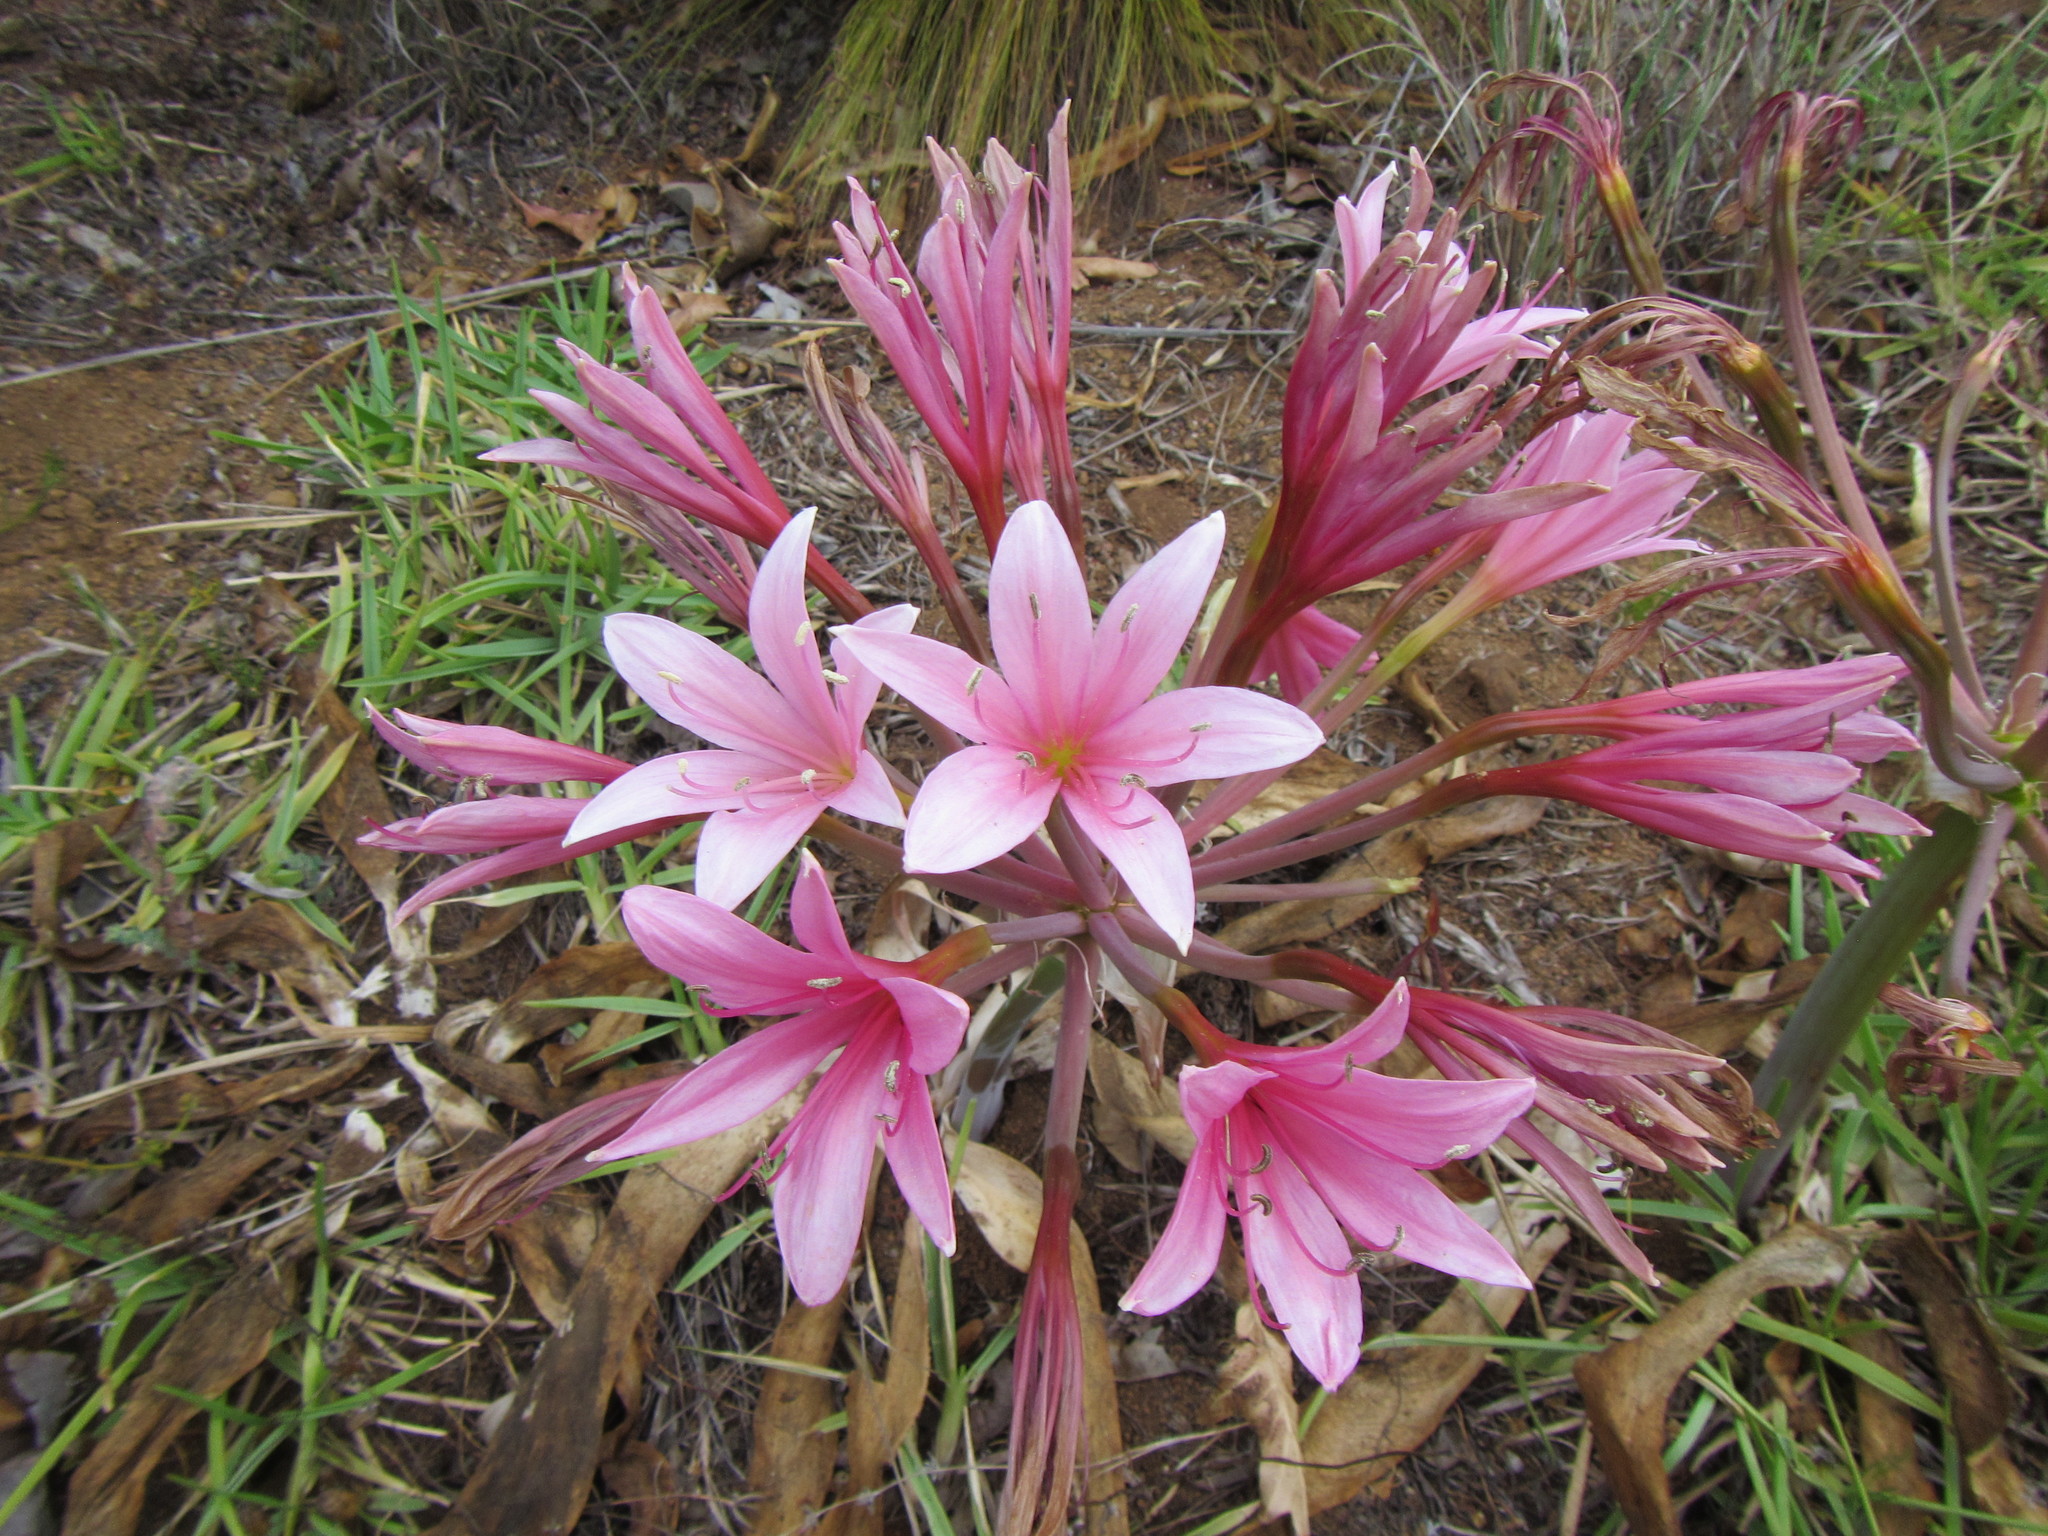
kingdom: Plantae
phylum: Tracheophyta
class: Liliopsida
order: Asparagales
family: Amaryllidaceae
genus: Ammocharis
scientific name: Ammocharis longifolia
